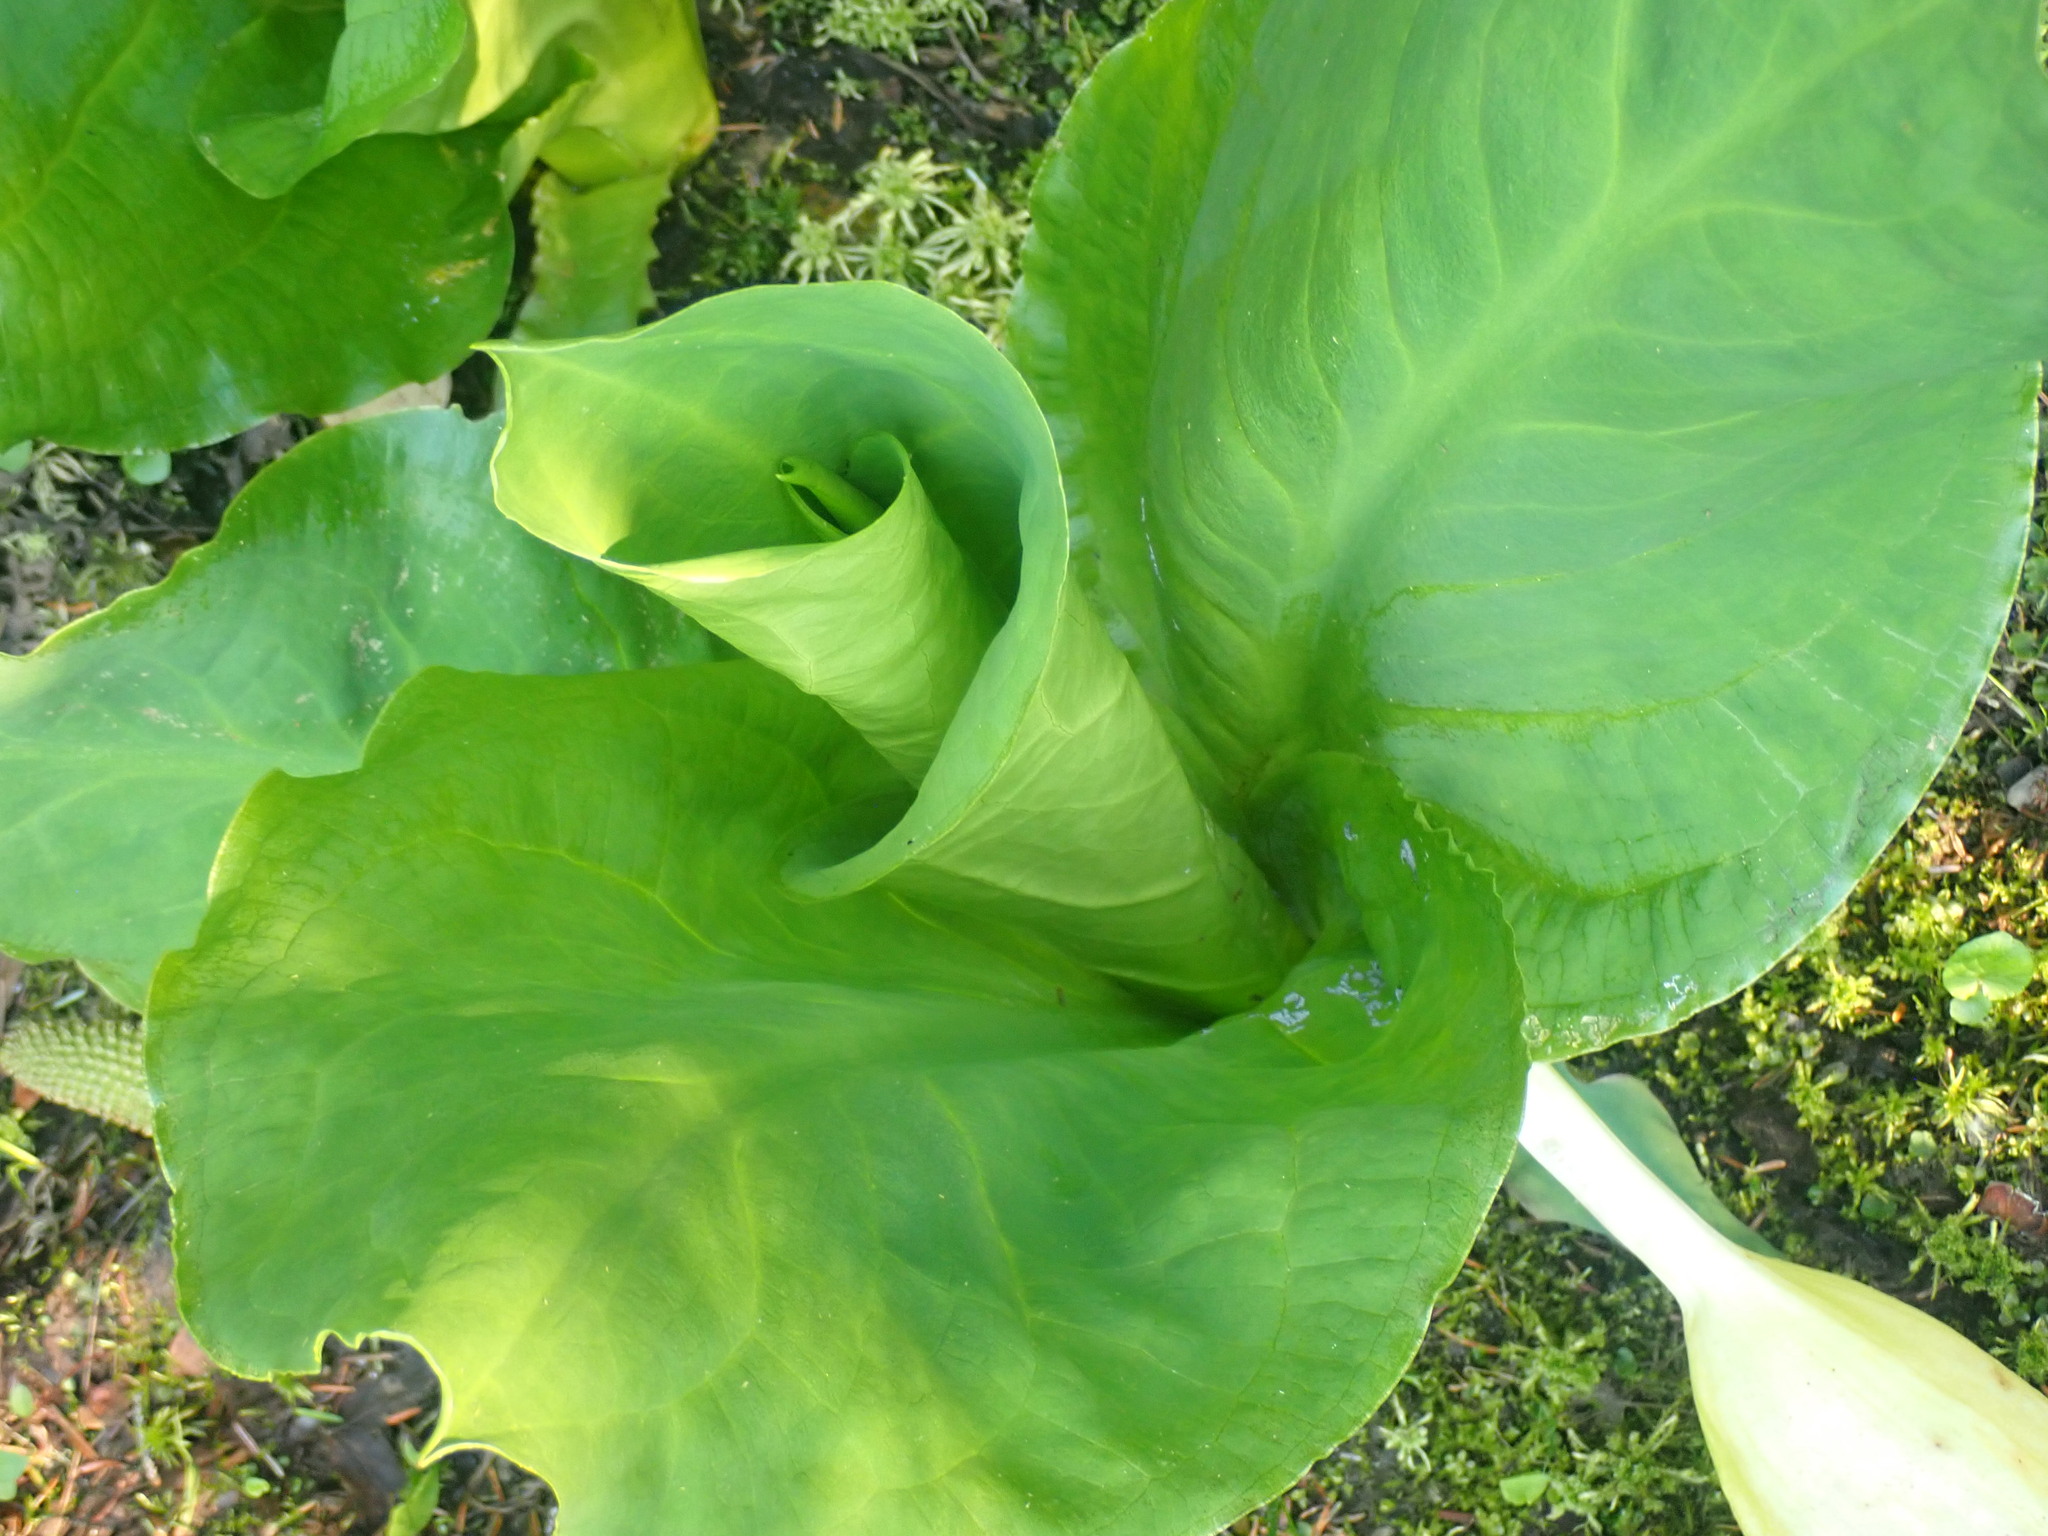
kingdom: Plantae
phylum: Tracheophyta
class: Liliopsida
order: Alismatales
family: Araceae
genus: Lysichiton
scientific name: Lysichiton americanus
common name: American skunk cabbage
